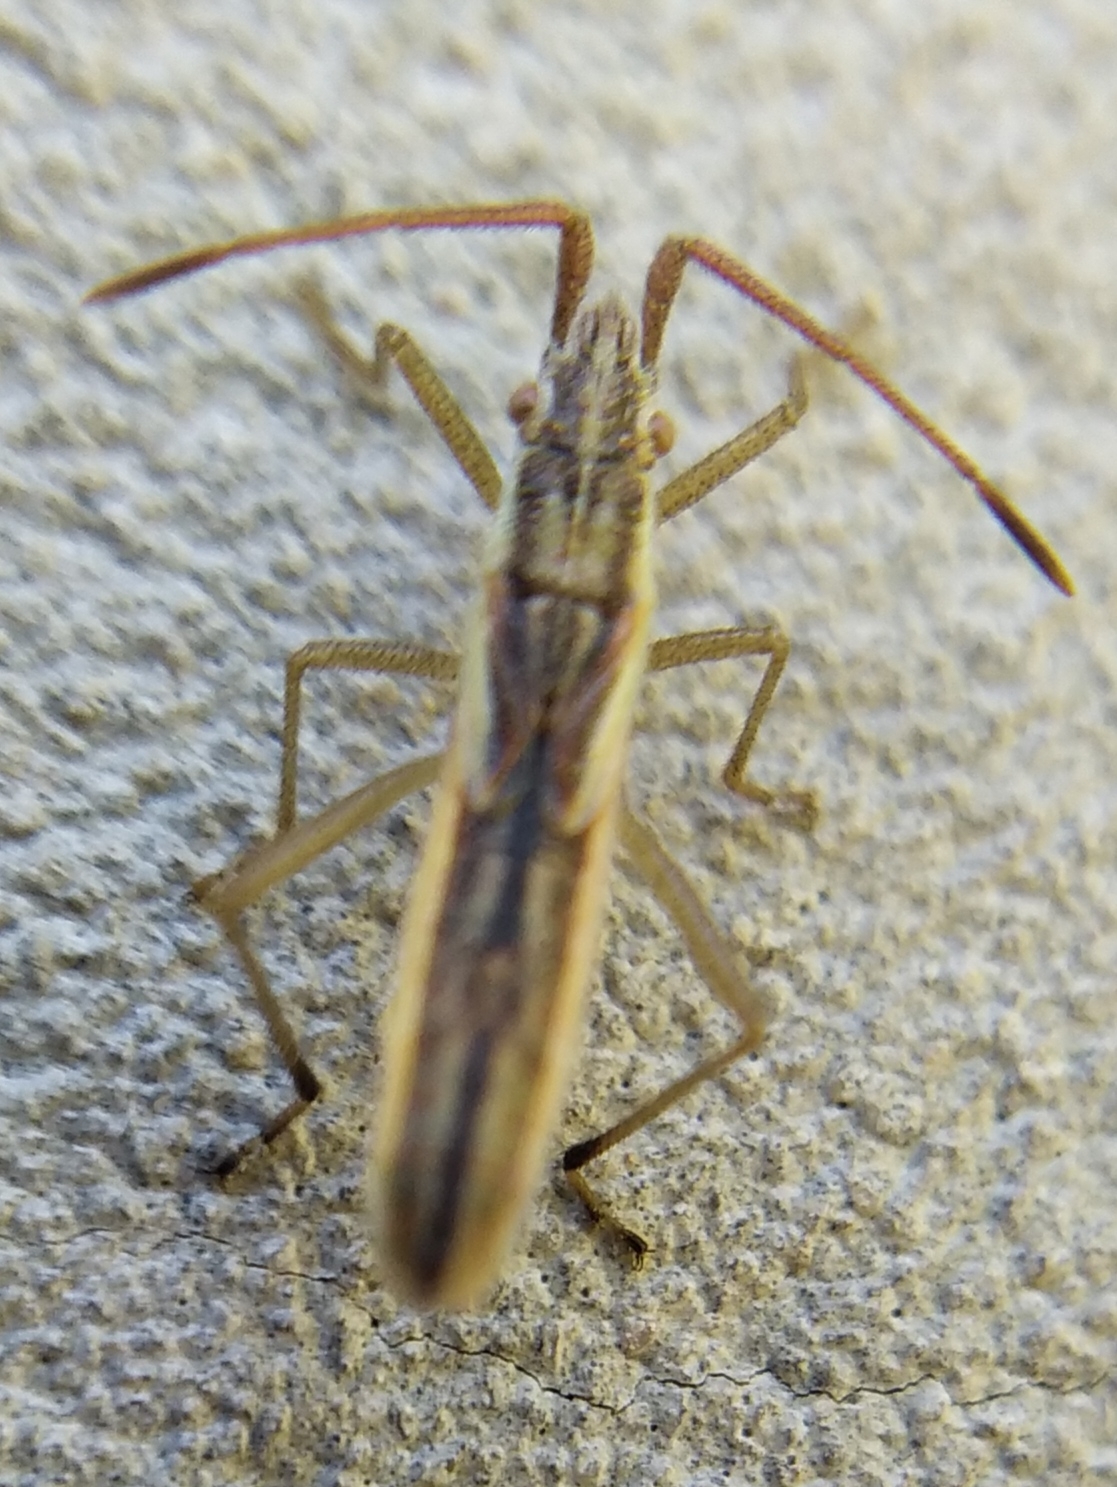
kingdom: Animalia
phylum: Arthropoda
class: Insecta
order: Hemiptera
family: Rhopalidae
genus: Myrmus
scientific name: Myrmus miriformis
